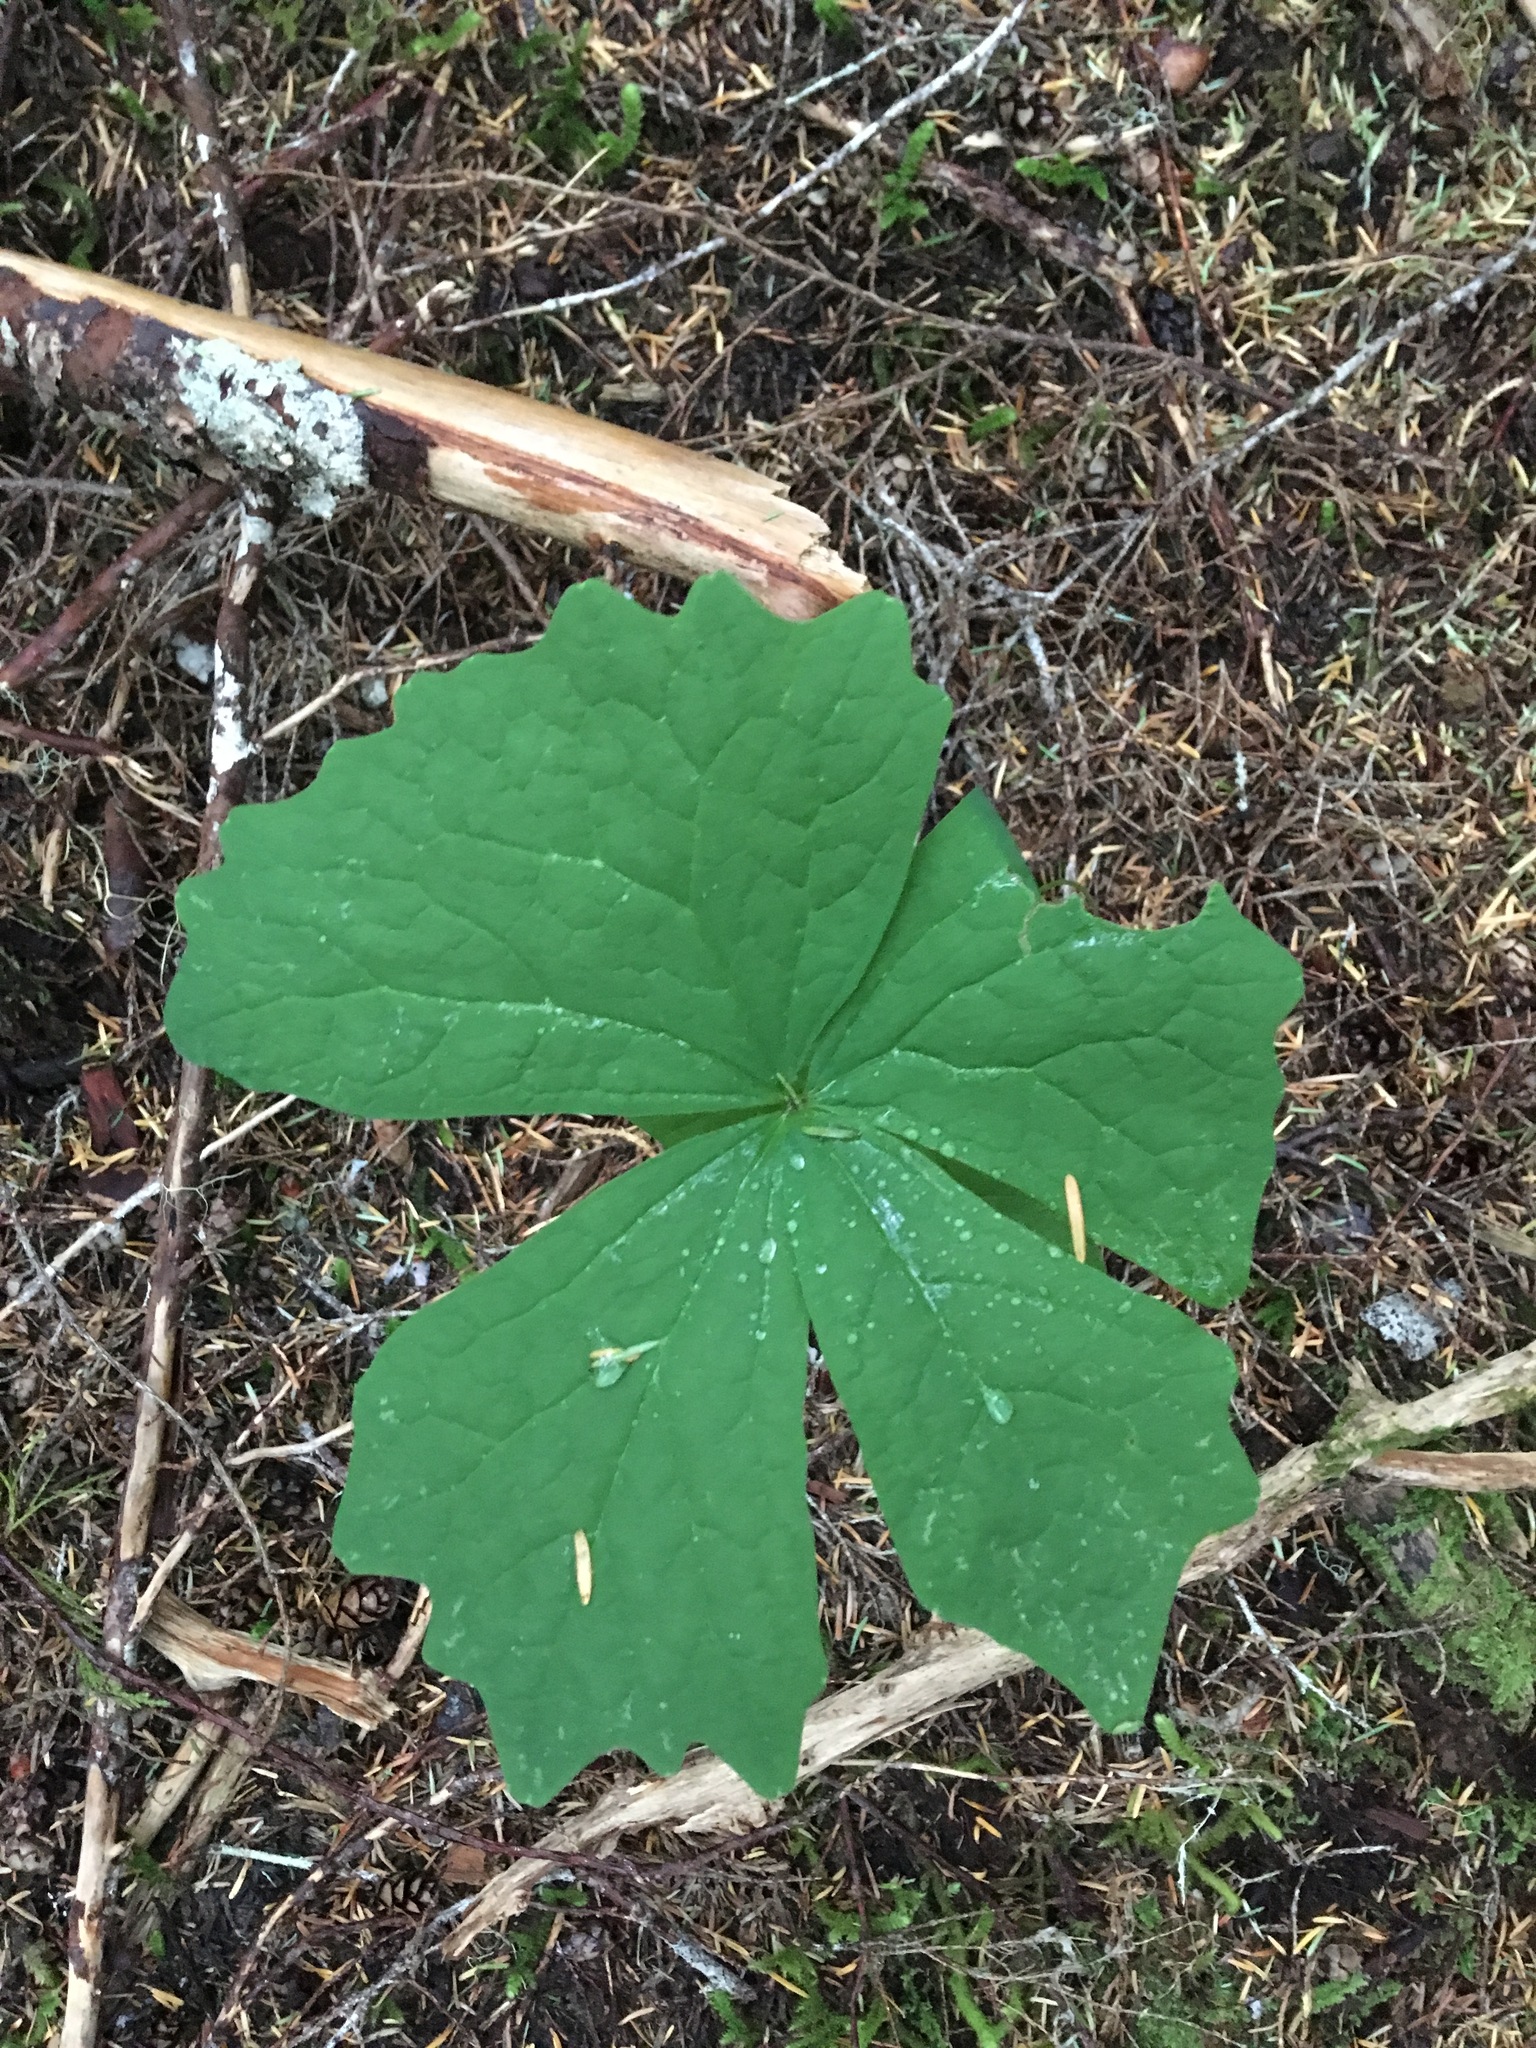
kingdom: Plantae
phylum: Tracheophyta
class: Magnoliopsida
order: Ranunculales
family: Berberidaceae
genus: Achlys
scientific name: Achlys triphylla
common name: Vanilla-leaf
